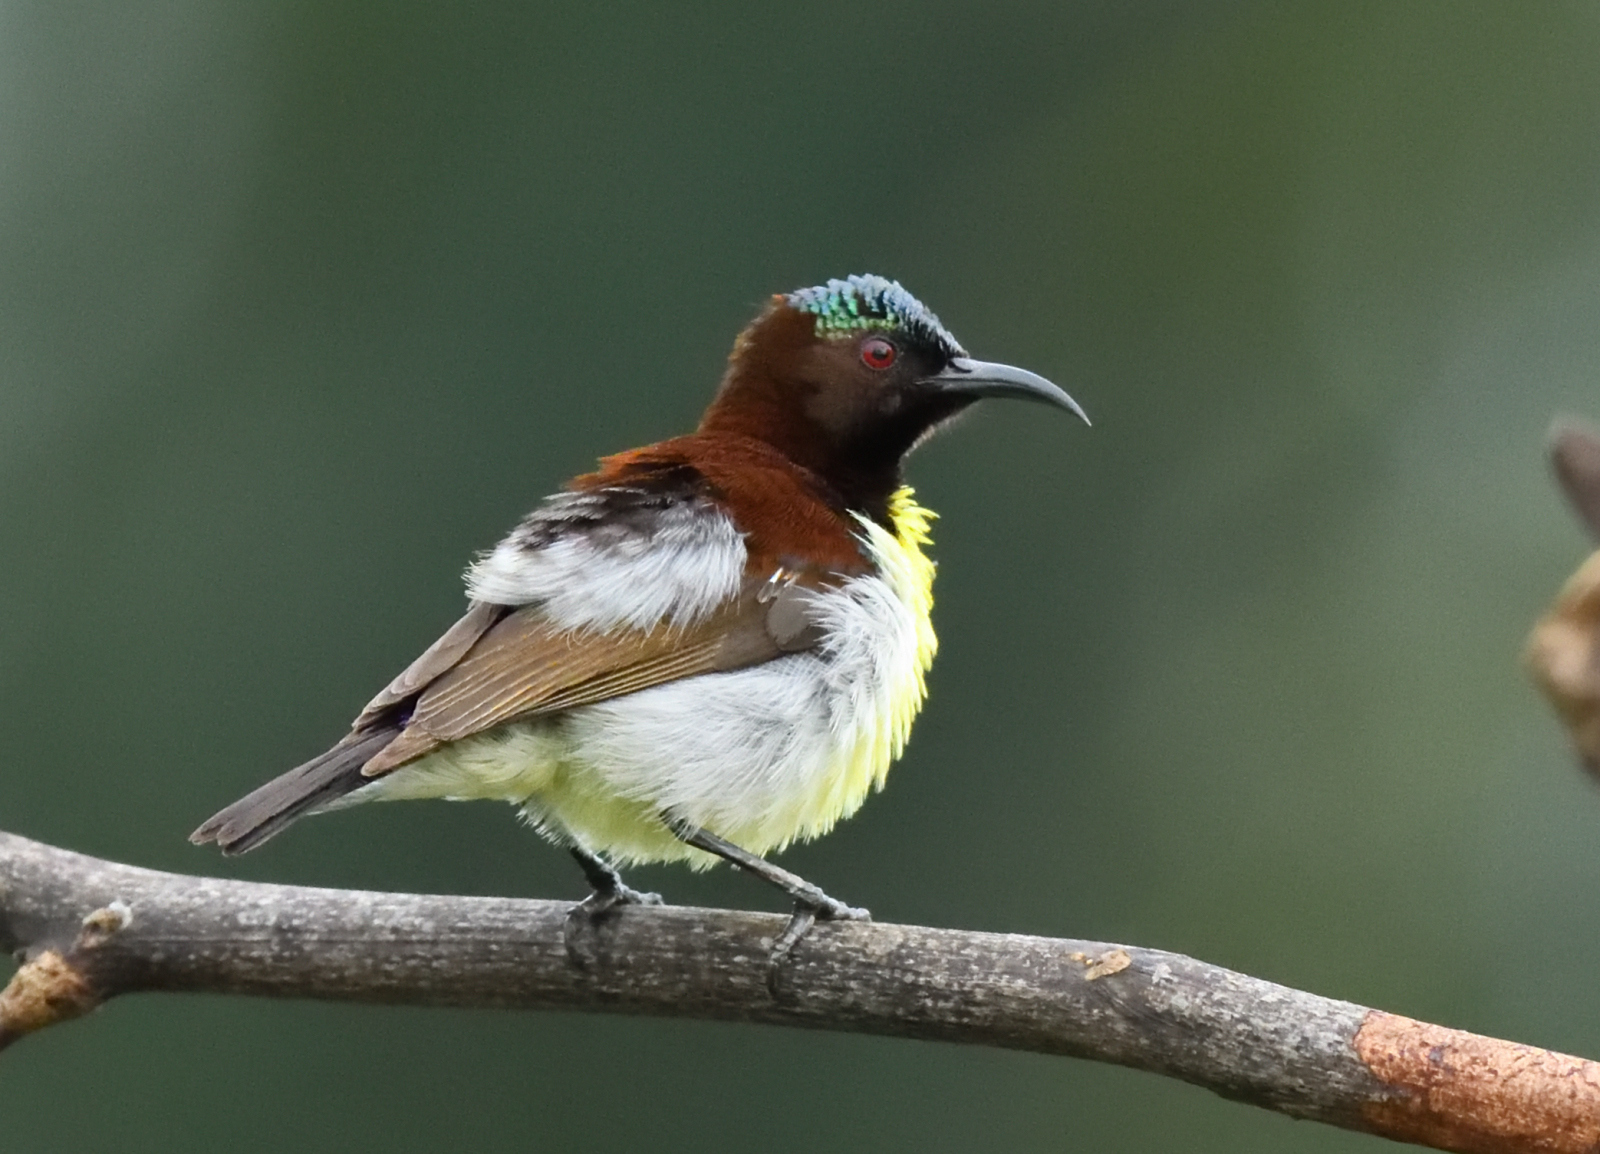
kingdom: Animalia
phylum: Chordata
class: Aves
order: Passeriformes
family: Nectariniidae
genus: Leptocoma
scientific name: Leptocoma zeylonica
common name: Purple-rumped sunbird
